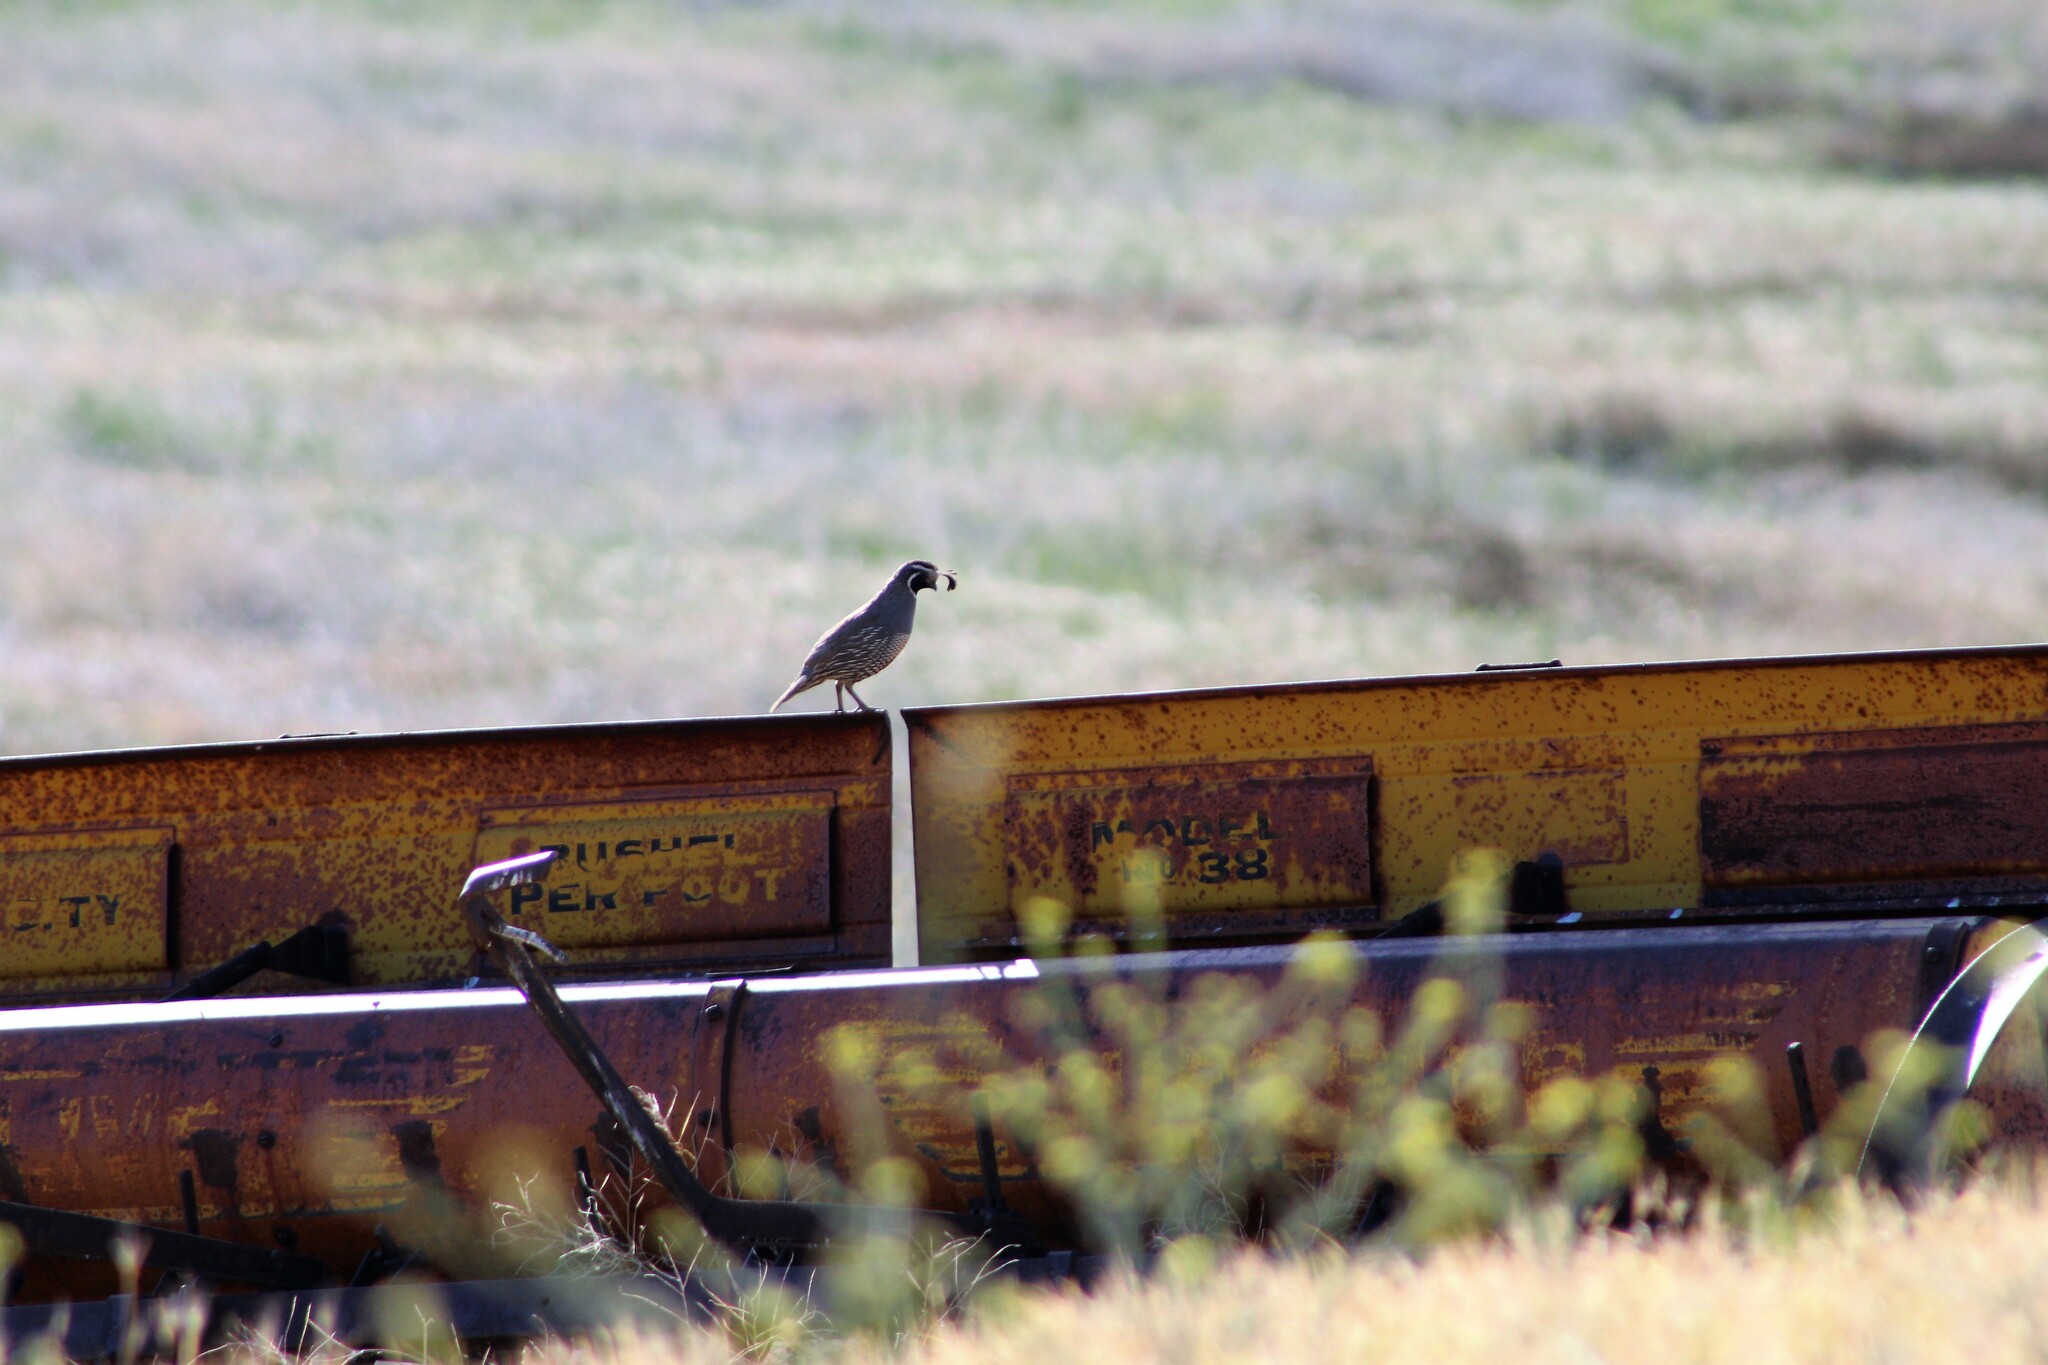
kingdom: Animalia
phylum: Chordata
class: Aves
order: Galliformes
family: Odontophoridae
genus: Callipepla
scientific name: Callipepla californica
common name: California quail
